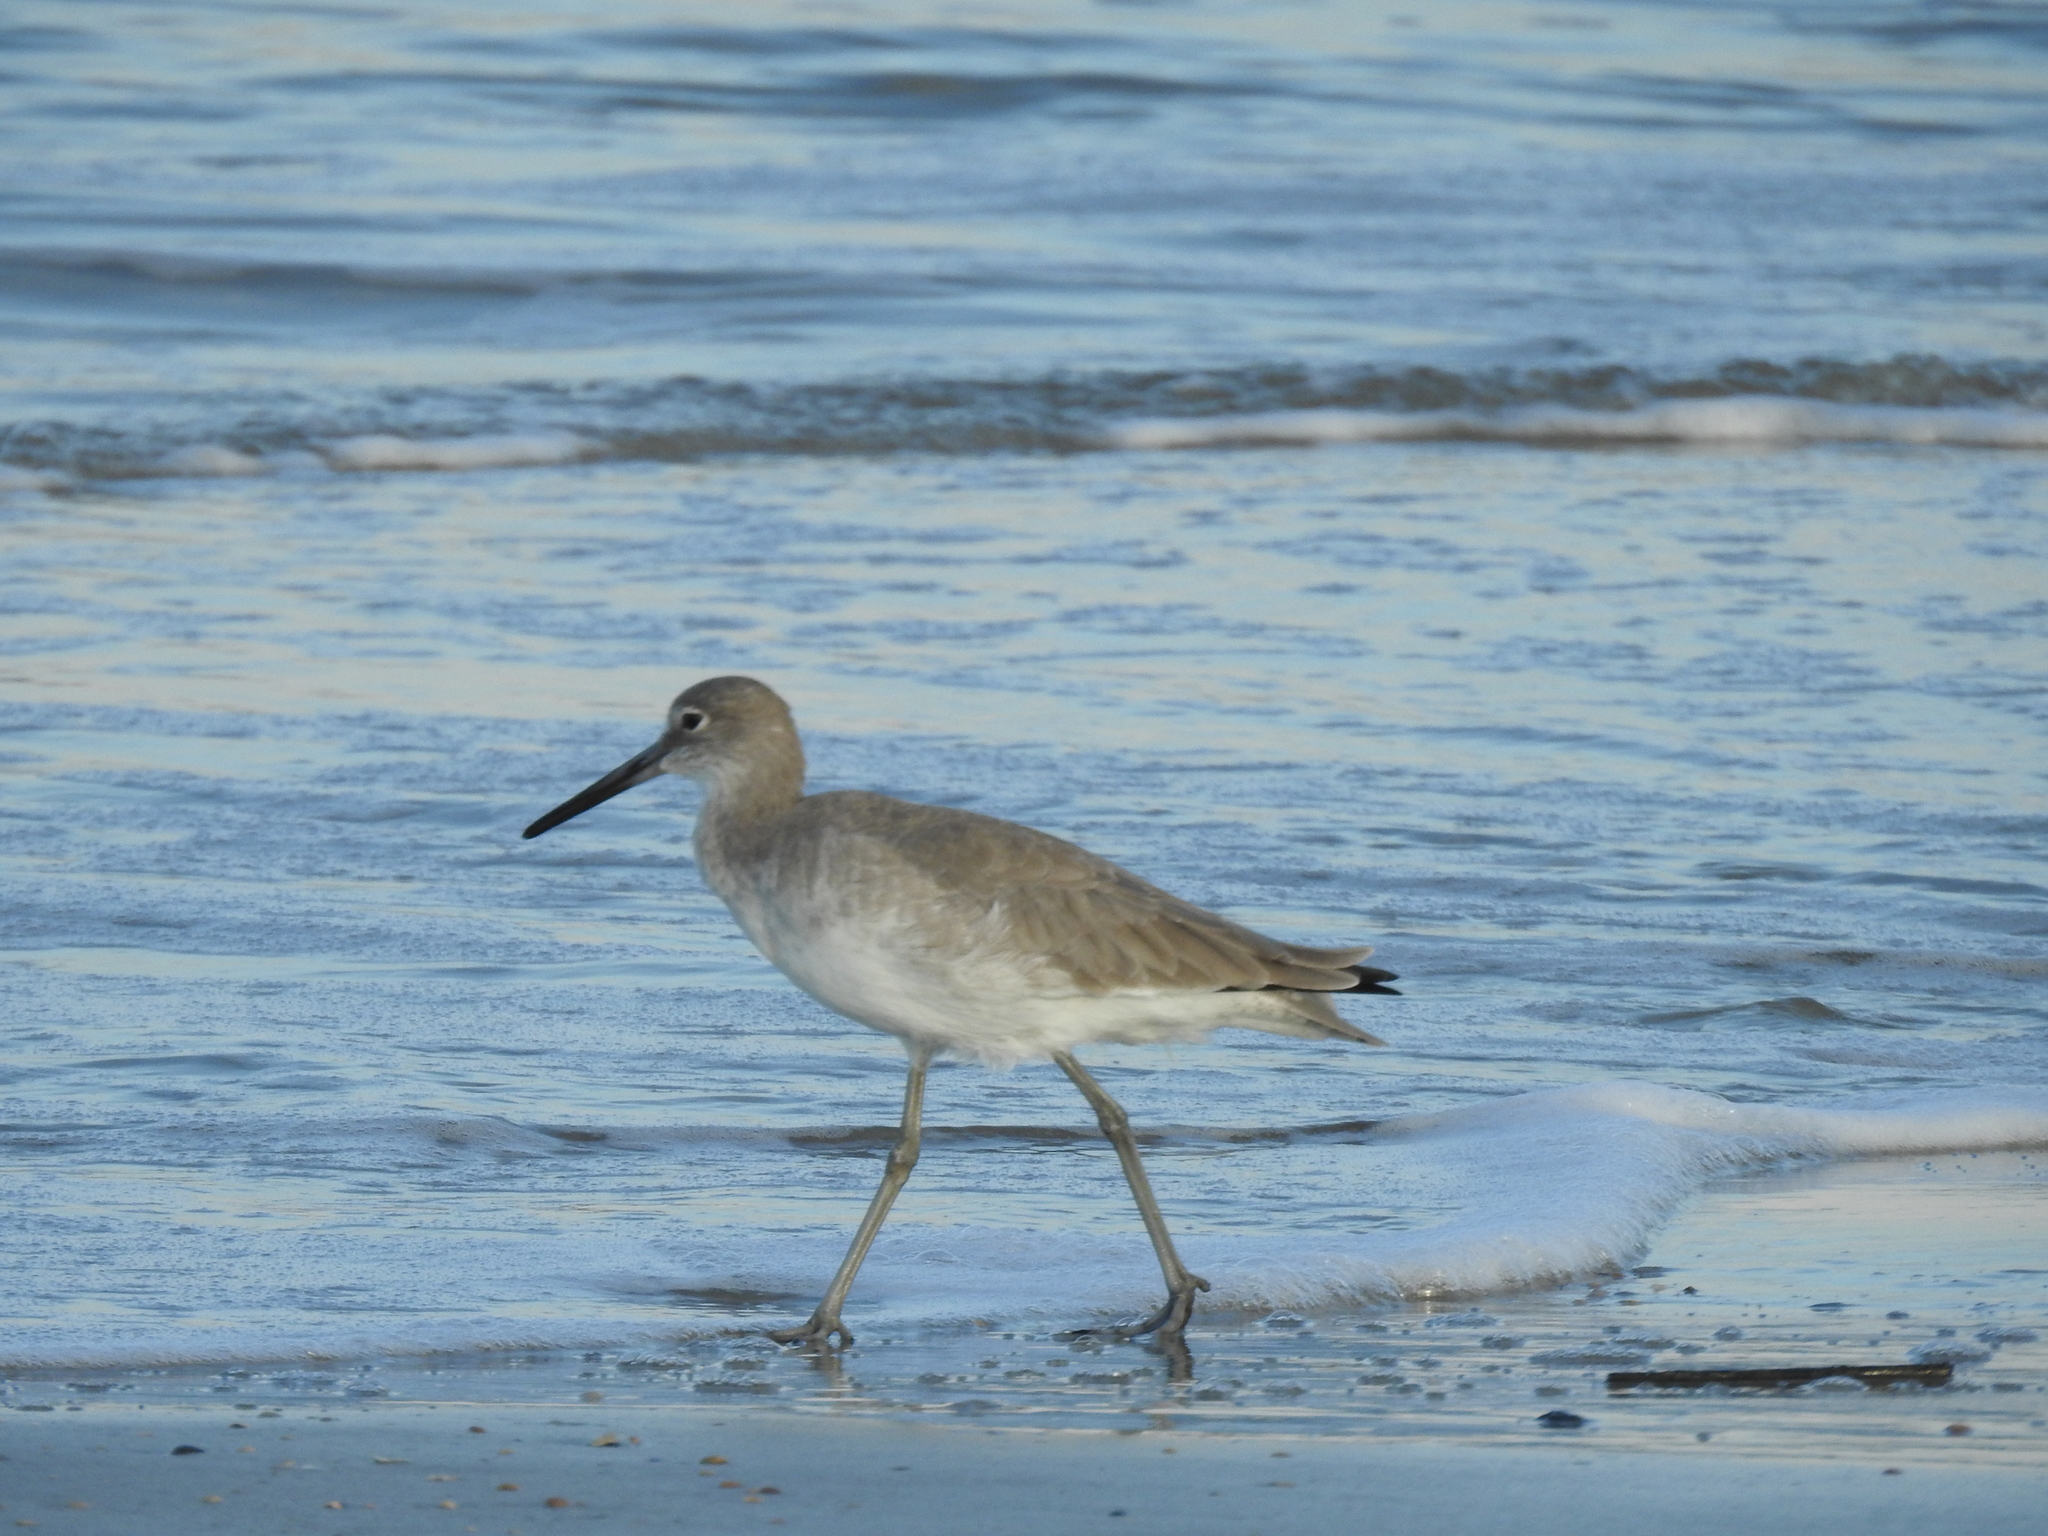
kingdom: Animalia
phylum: Chordata
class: Aves
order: Charadriiformes
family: Scolopacidae
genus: Tringa
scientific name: Tringa semipalmata
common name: Willet
